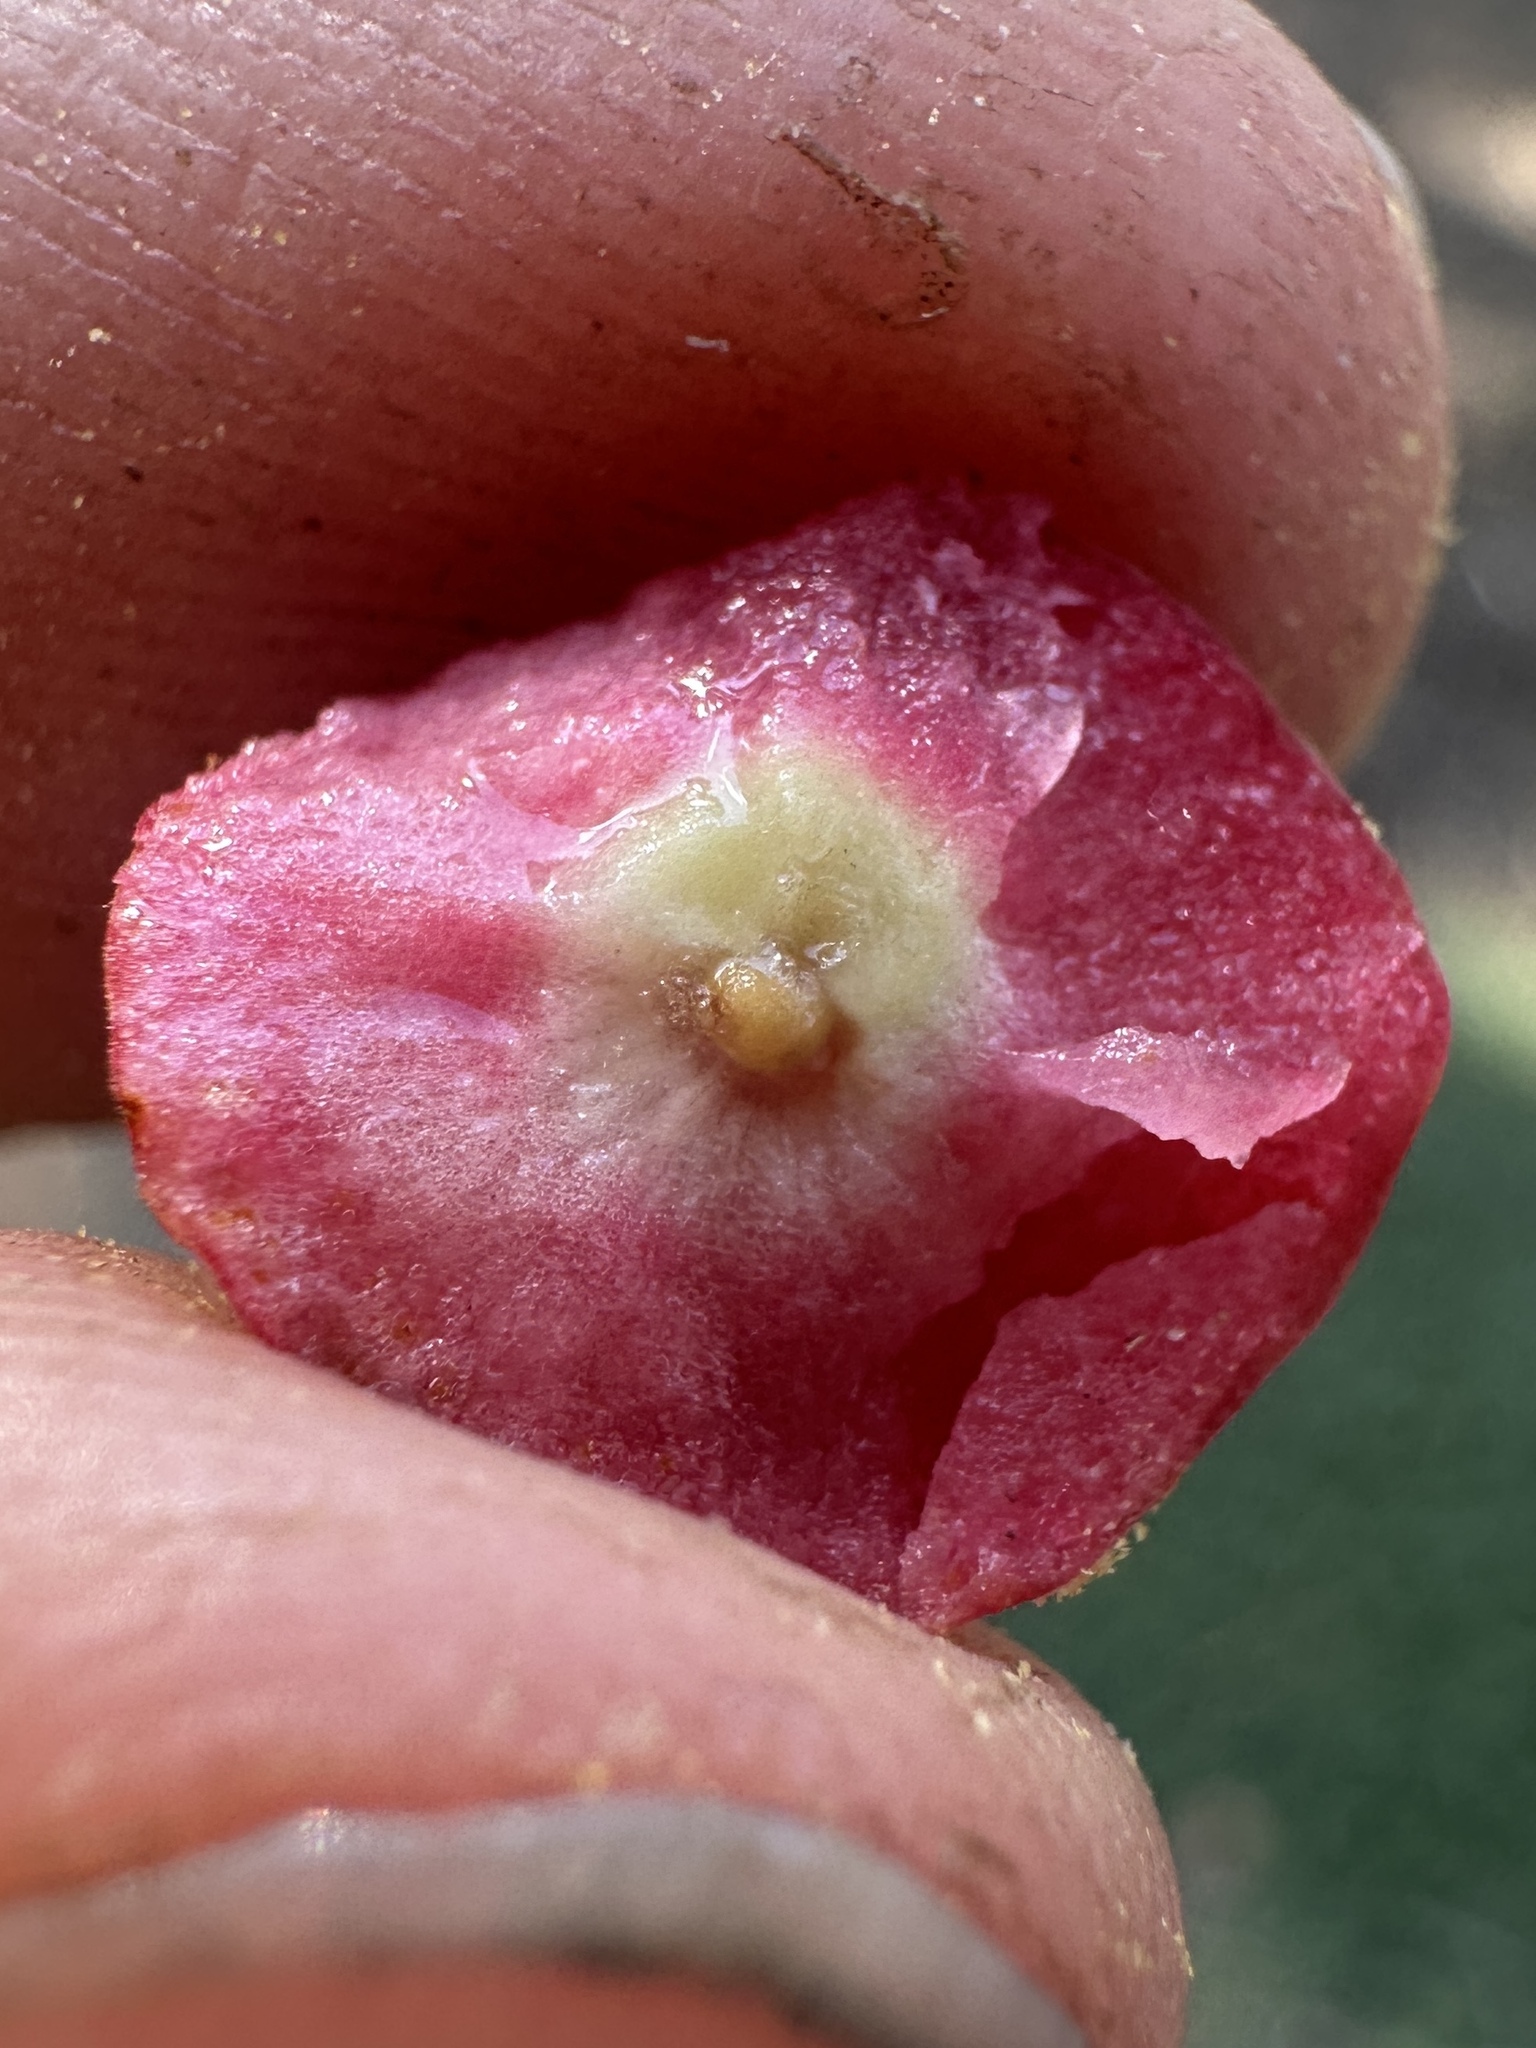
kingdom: Animalia
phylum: Arthropoda
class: Insecta
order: Hymenoptera
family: Cynipidae
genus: Synergus
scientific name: Synergus castanopsidis
